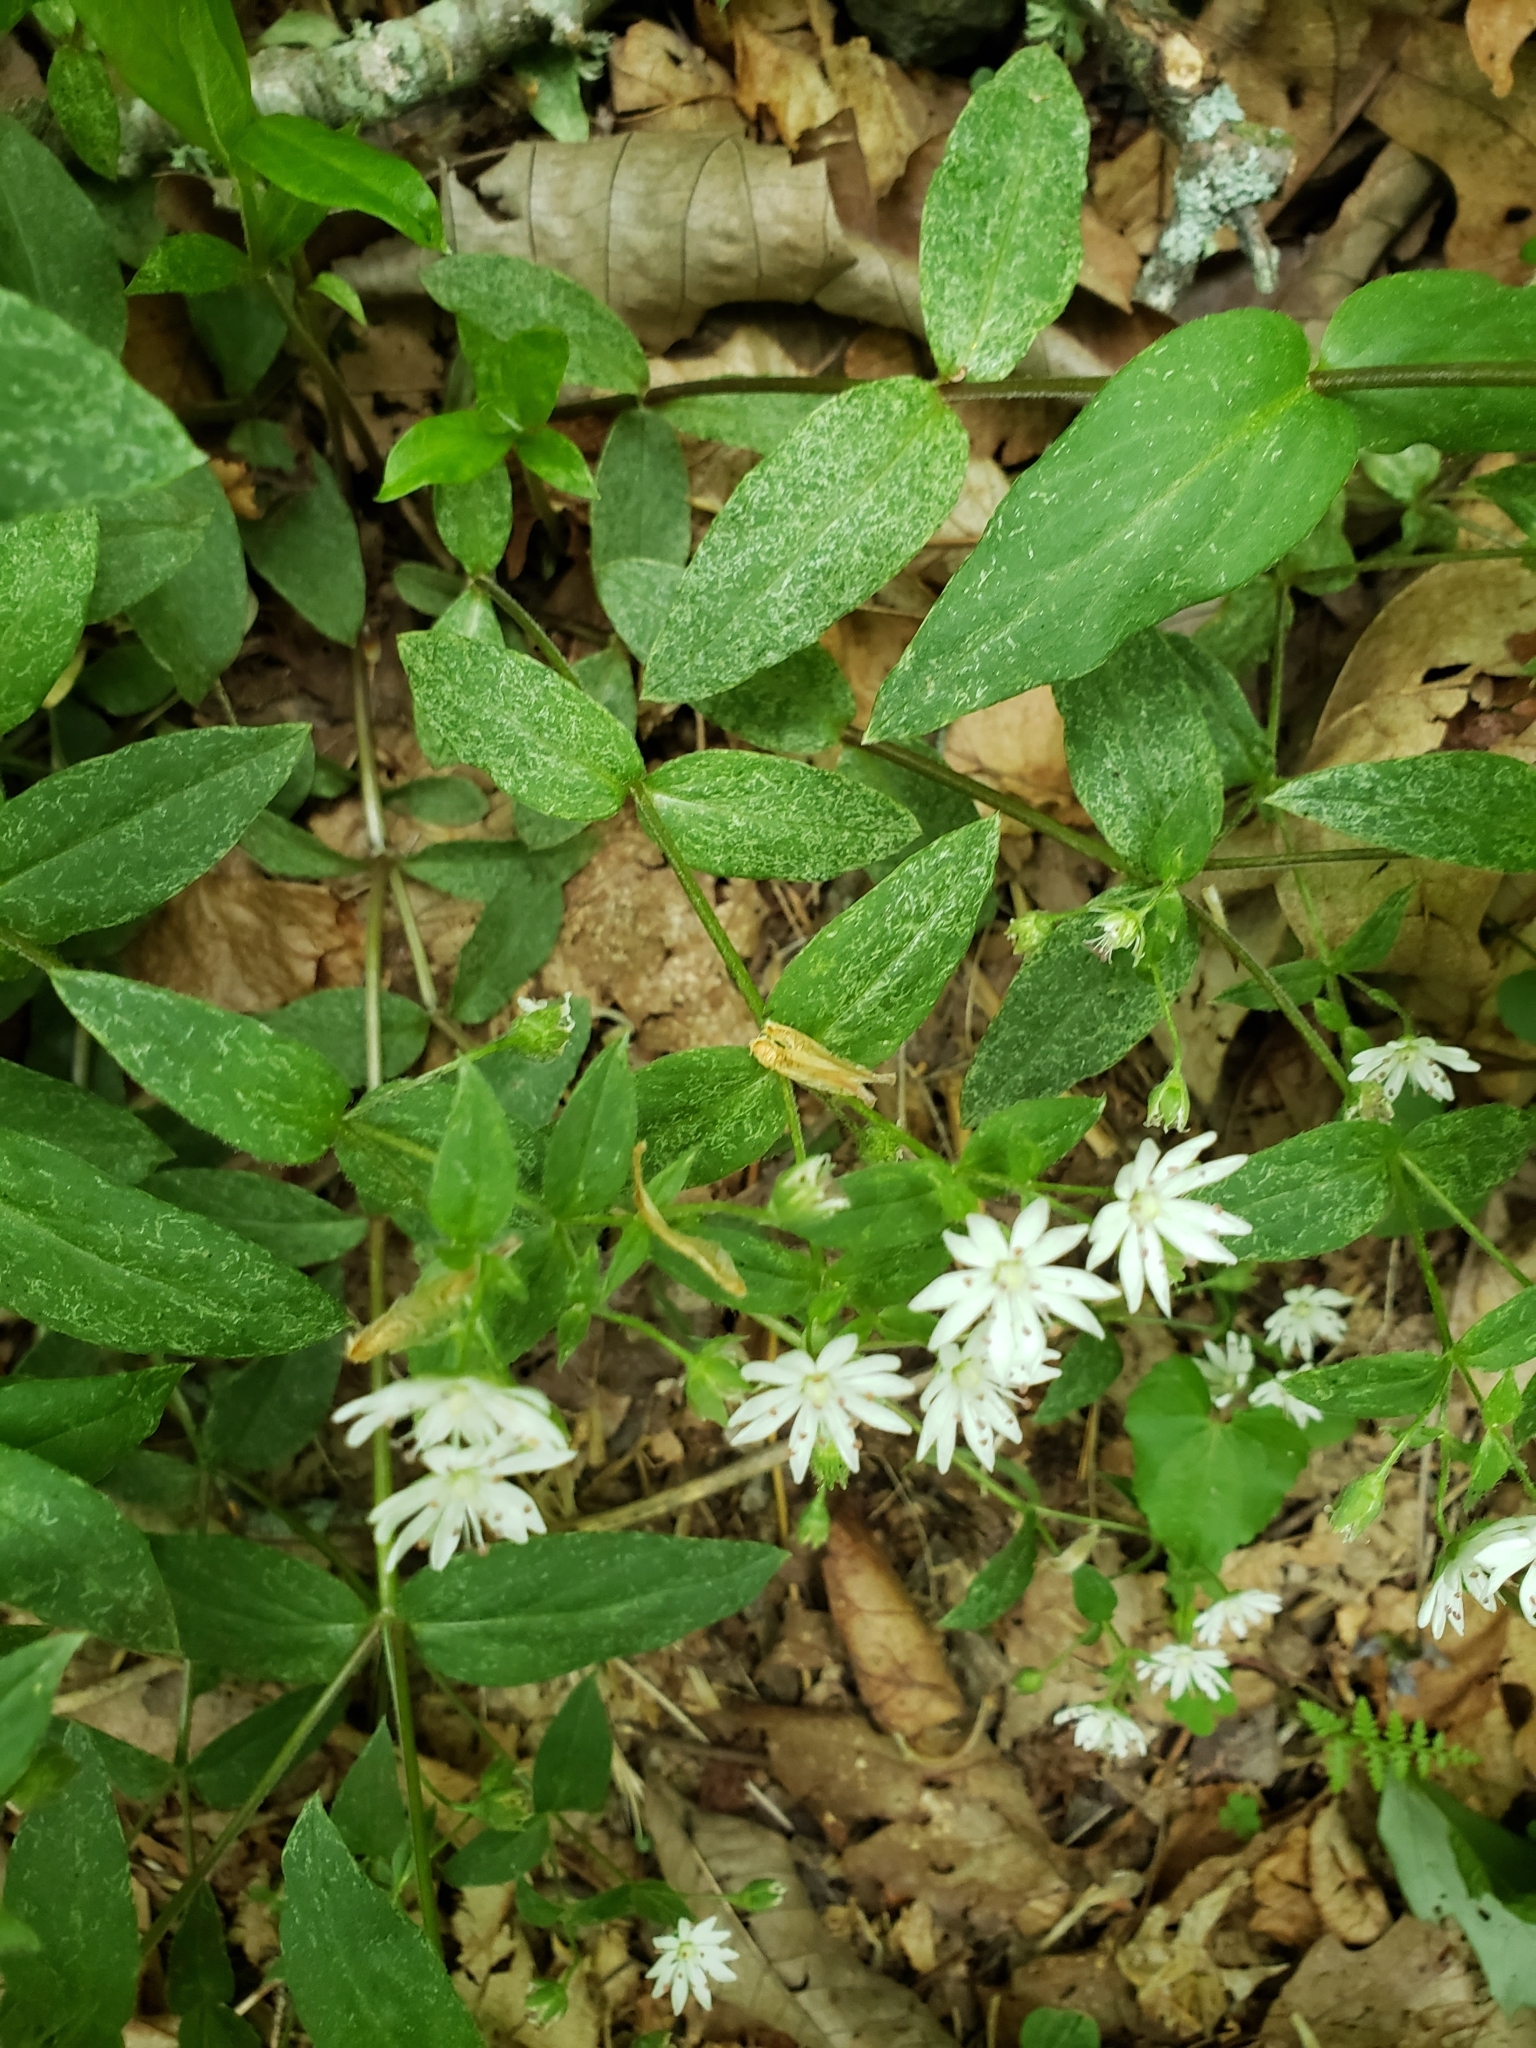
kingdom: Plantae
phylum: Tracheophyta
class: Magnoliopsida
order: Caryophyllales
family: Caryophyllaceae
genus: Stellaria
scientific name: Stellaria pubera
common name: Star chickweed
